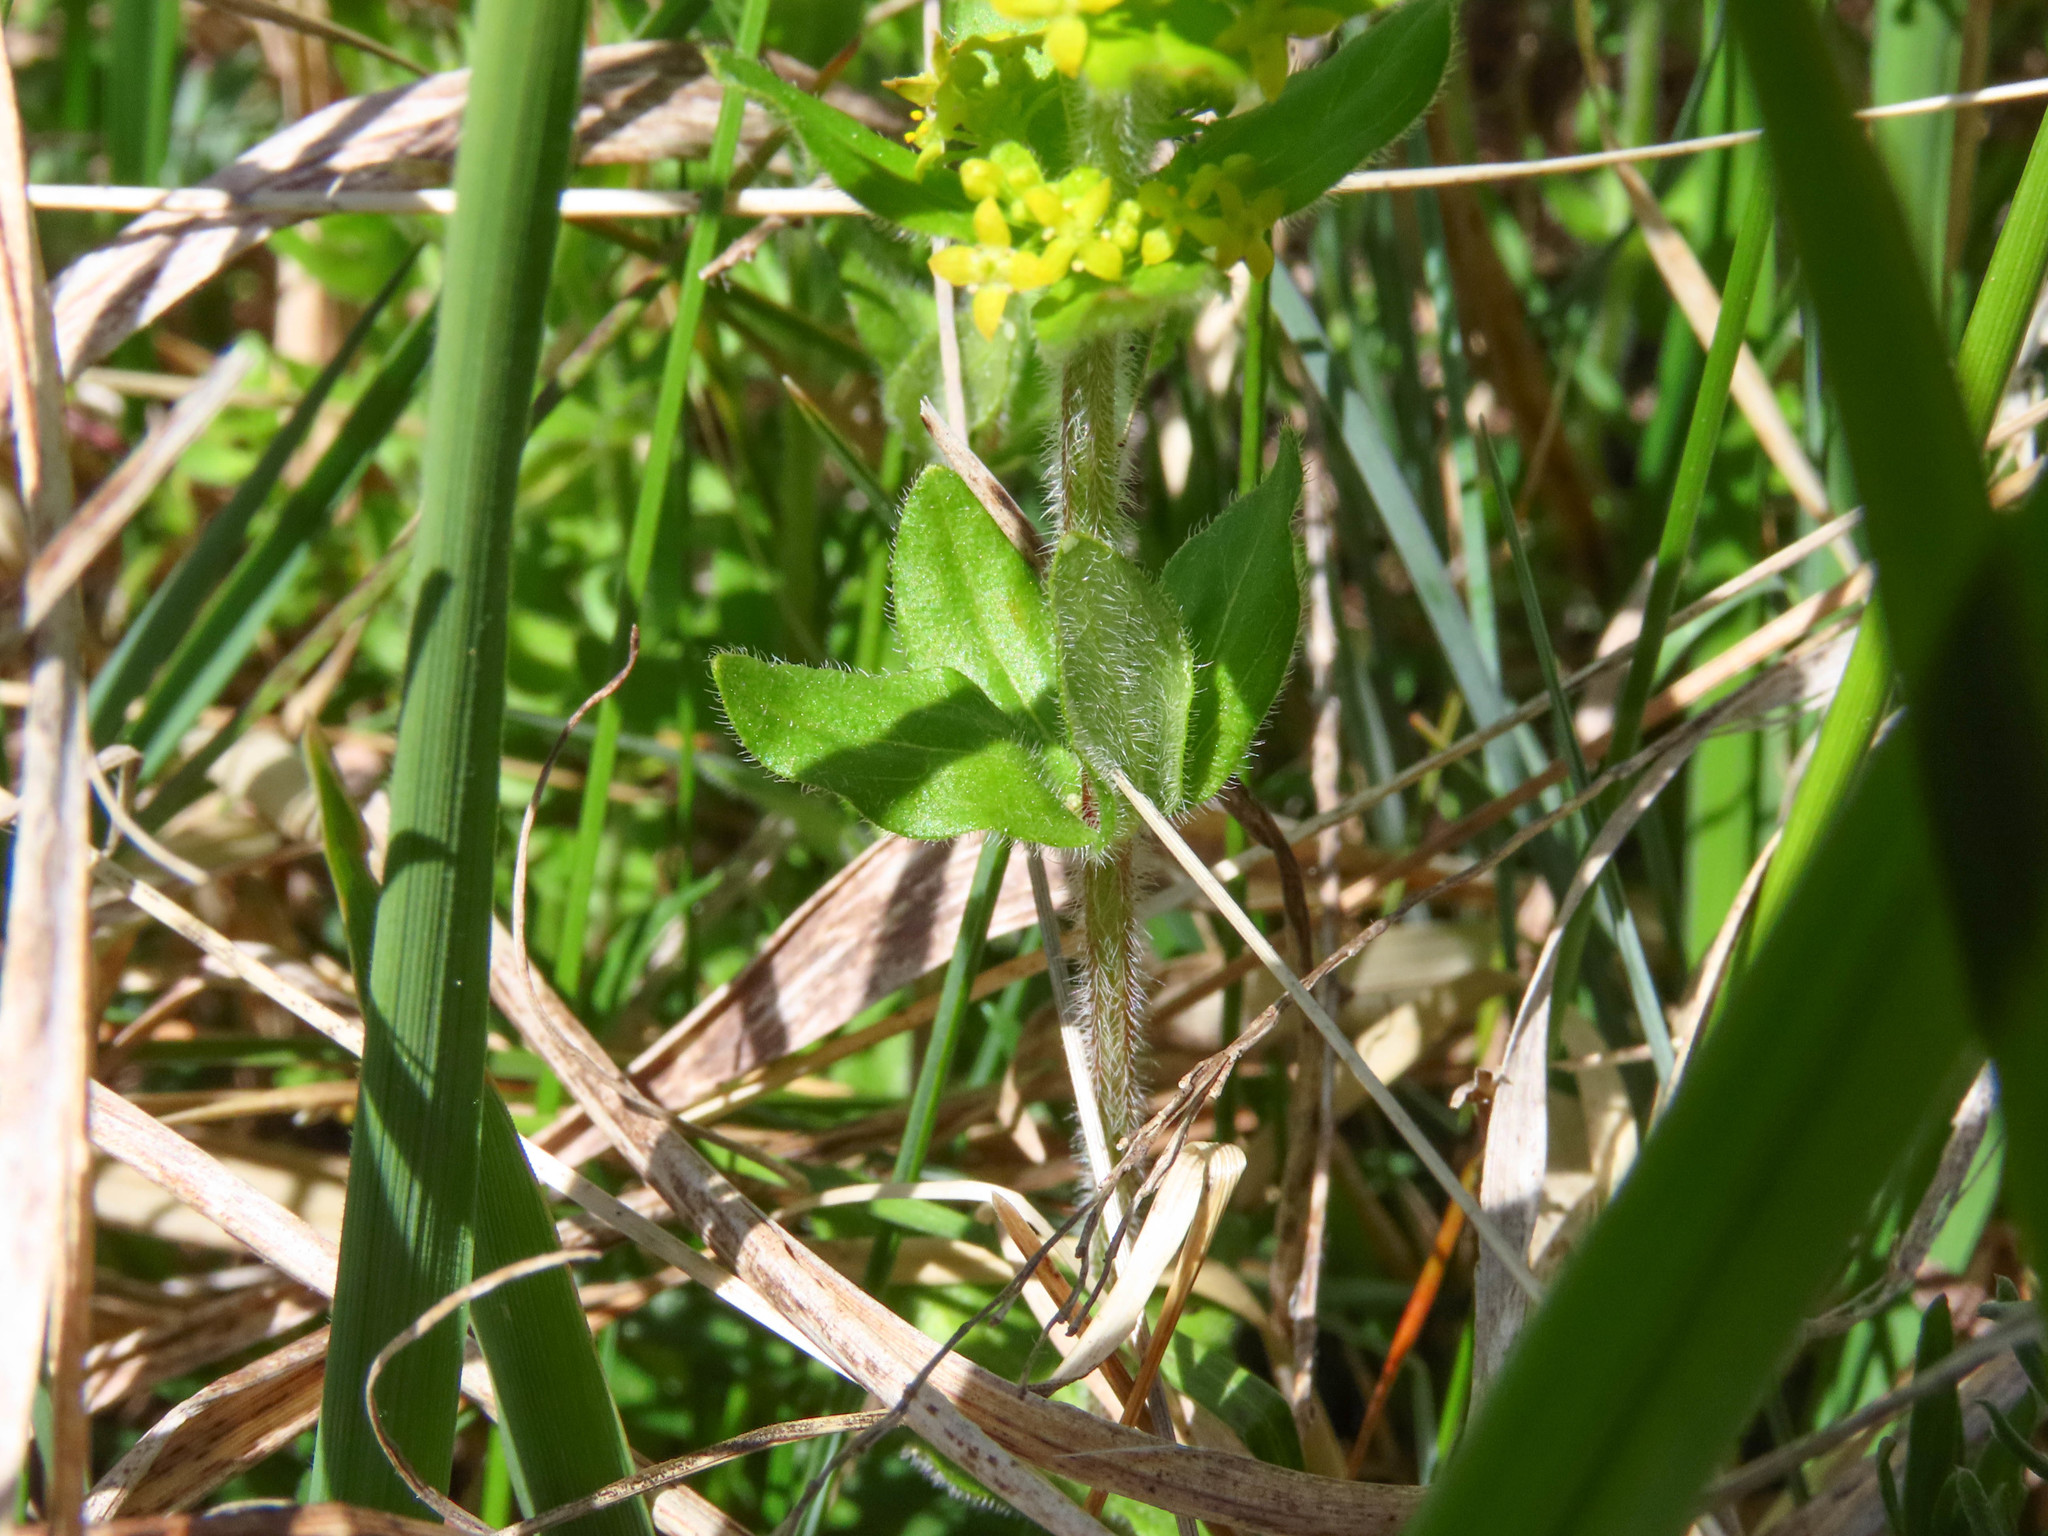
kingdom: Plantae
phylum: Tracheophyta
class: Magnoliopsida
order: Gentianales
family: Rubiaceae
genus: Cruciata
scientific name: Cruciata laevipes
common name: Crosswort
